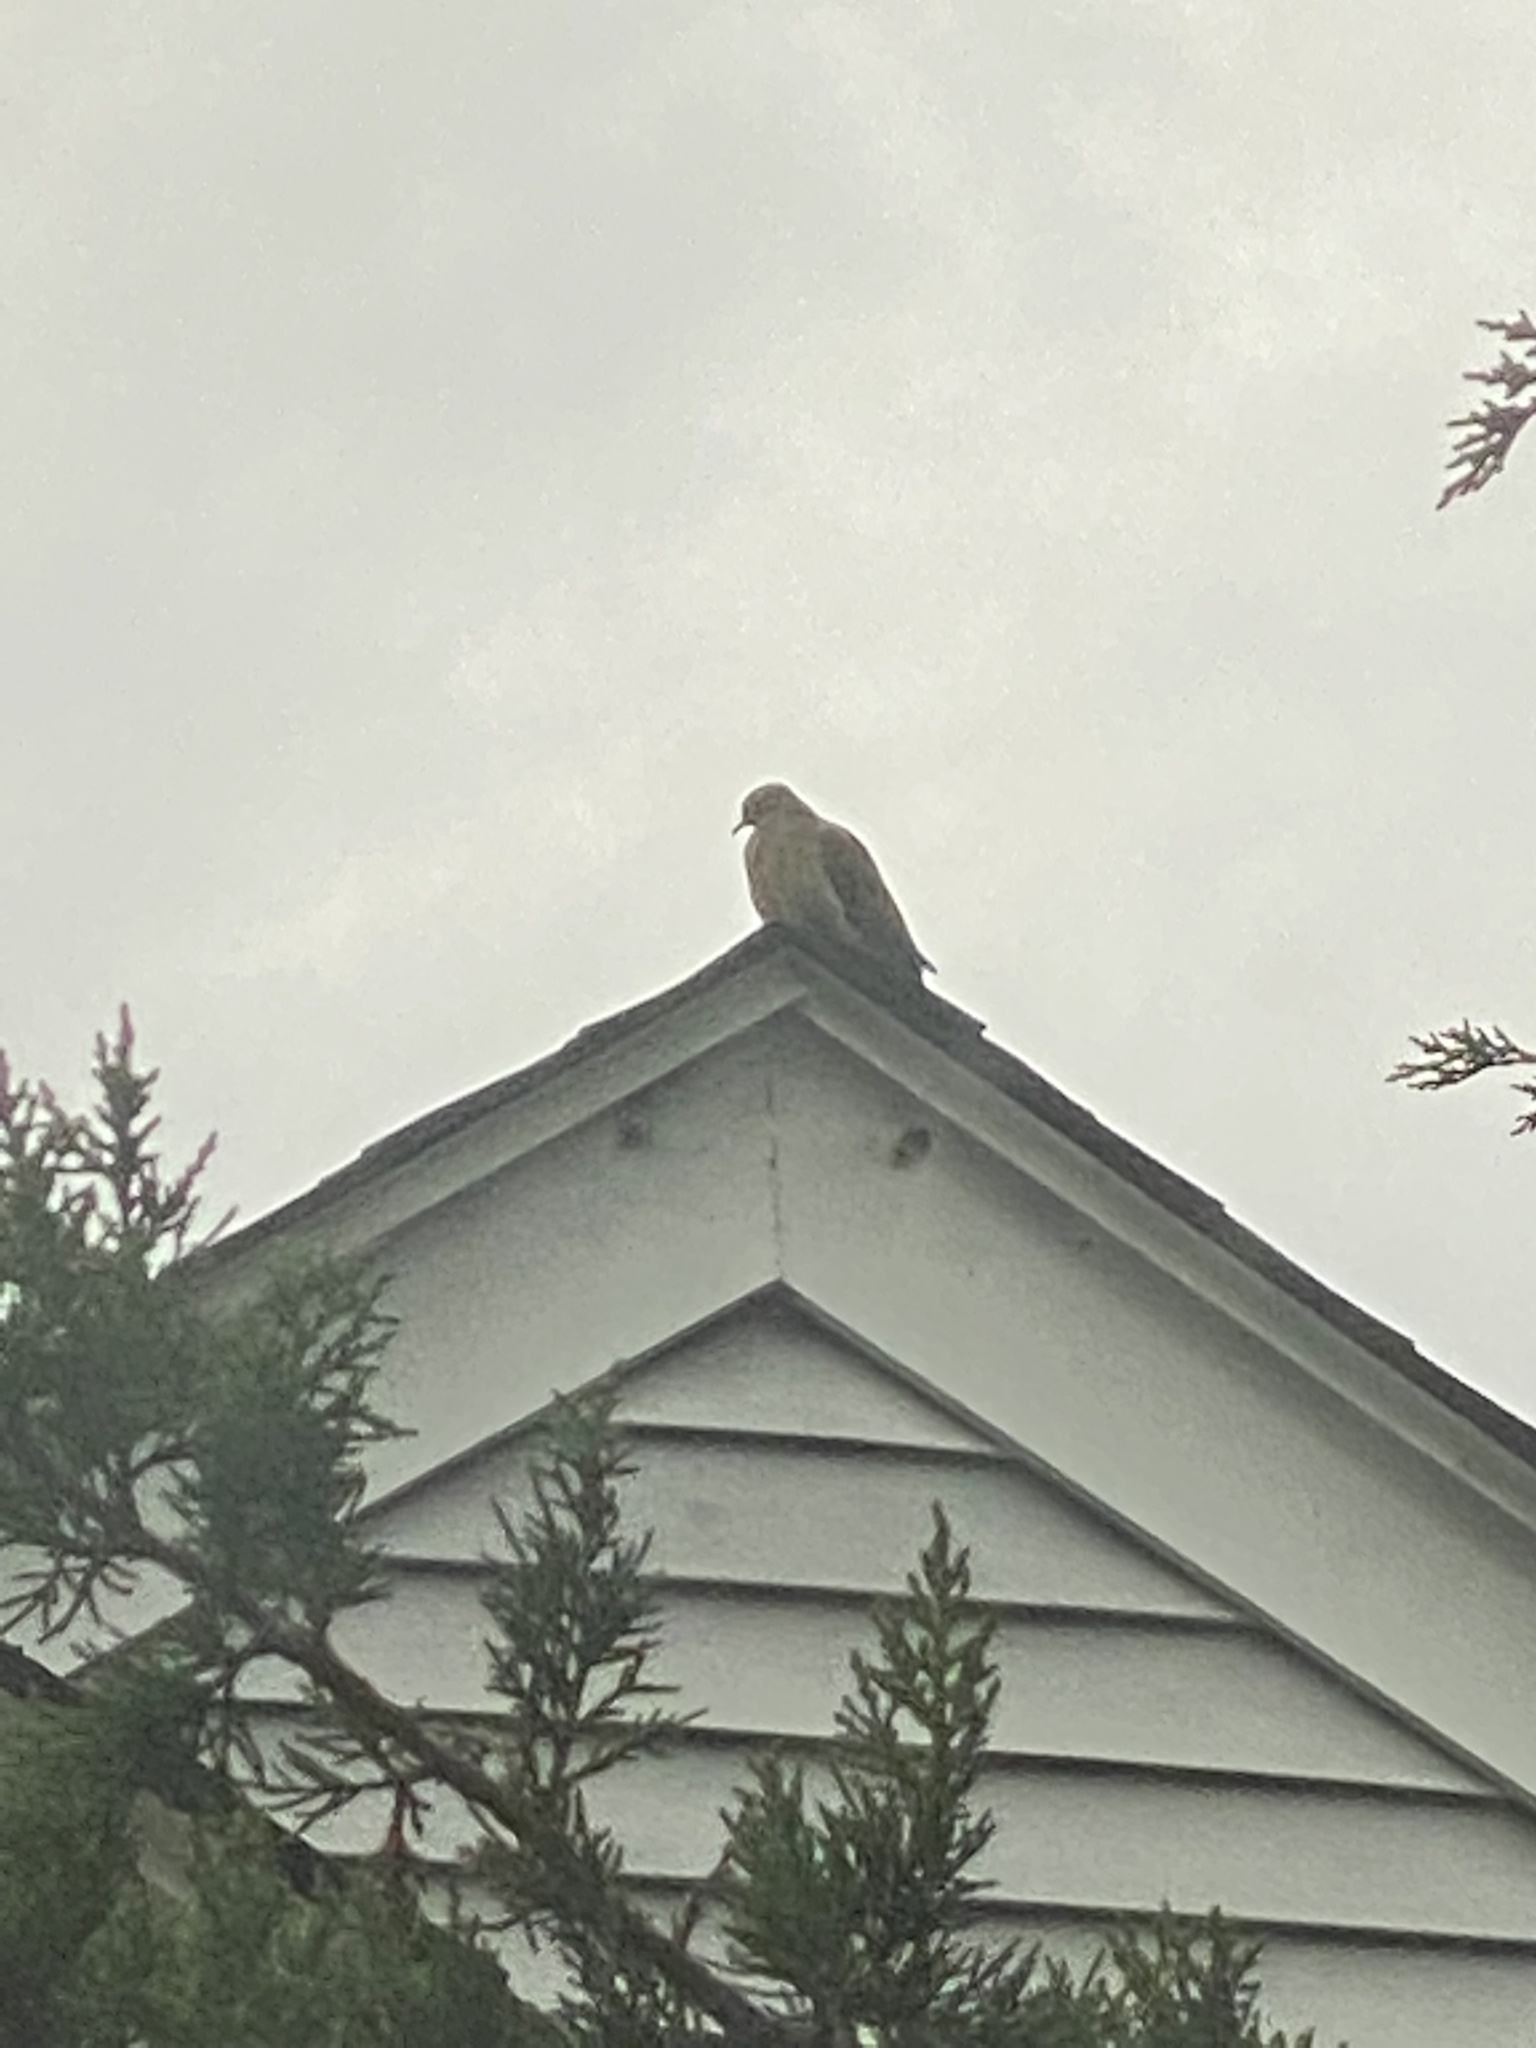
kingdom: Animalia
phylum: Chordata
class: Aves
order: Columbiformes
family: Columbidae
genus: Zenaida
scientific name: Zenaida macroura
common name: Mourning dove
